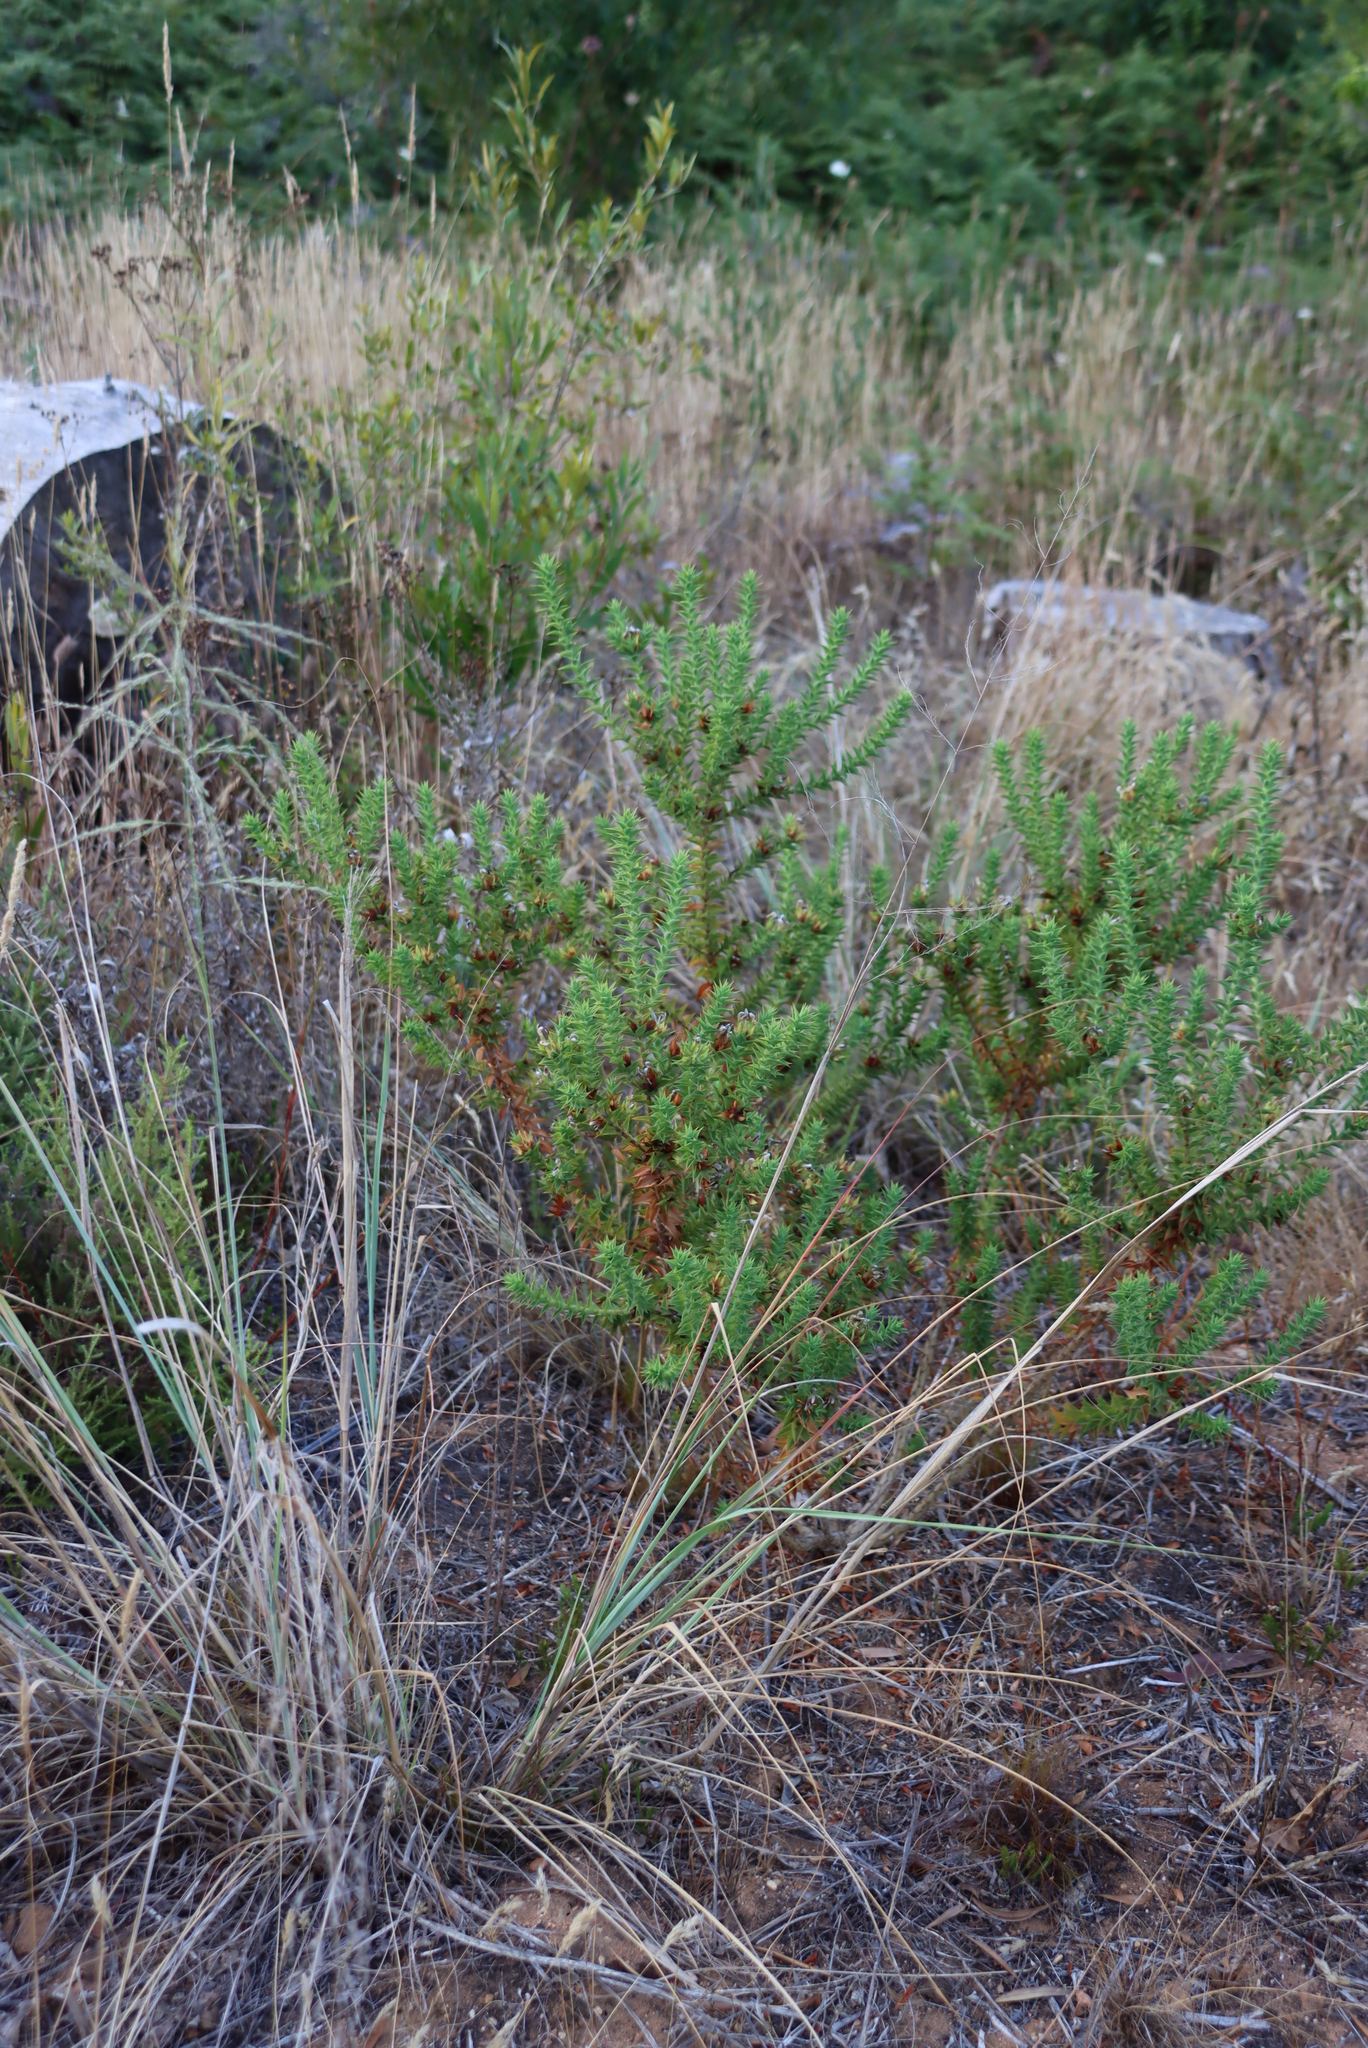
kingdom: Plantae
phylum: Tracheophyta
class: Magnoliopsida
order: Fabales
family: Fabaceae
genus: Aspalathus
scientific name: Aspalathus cordata
